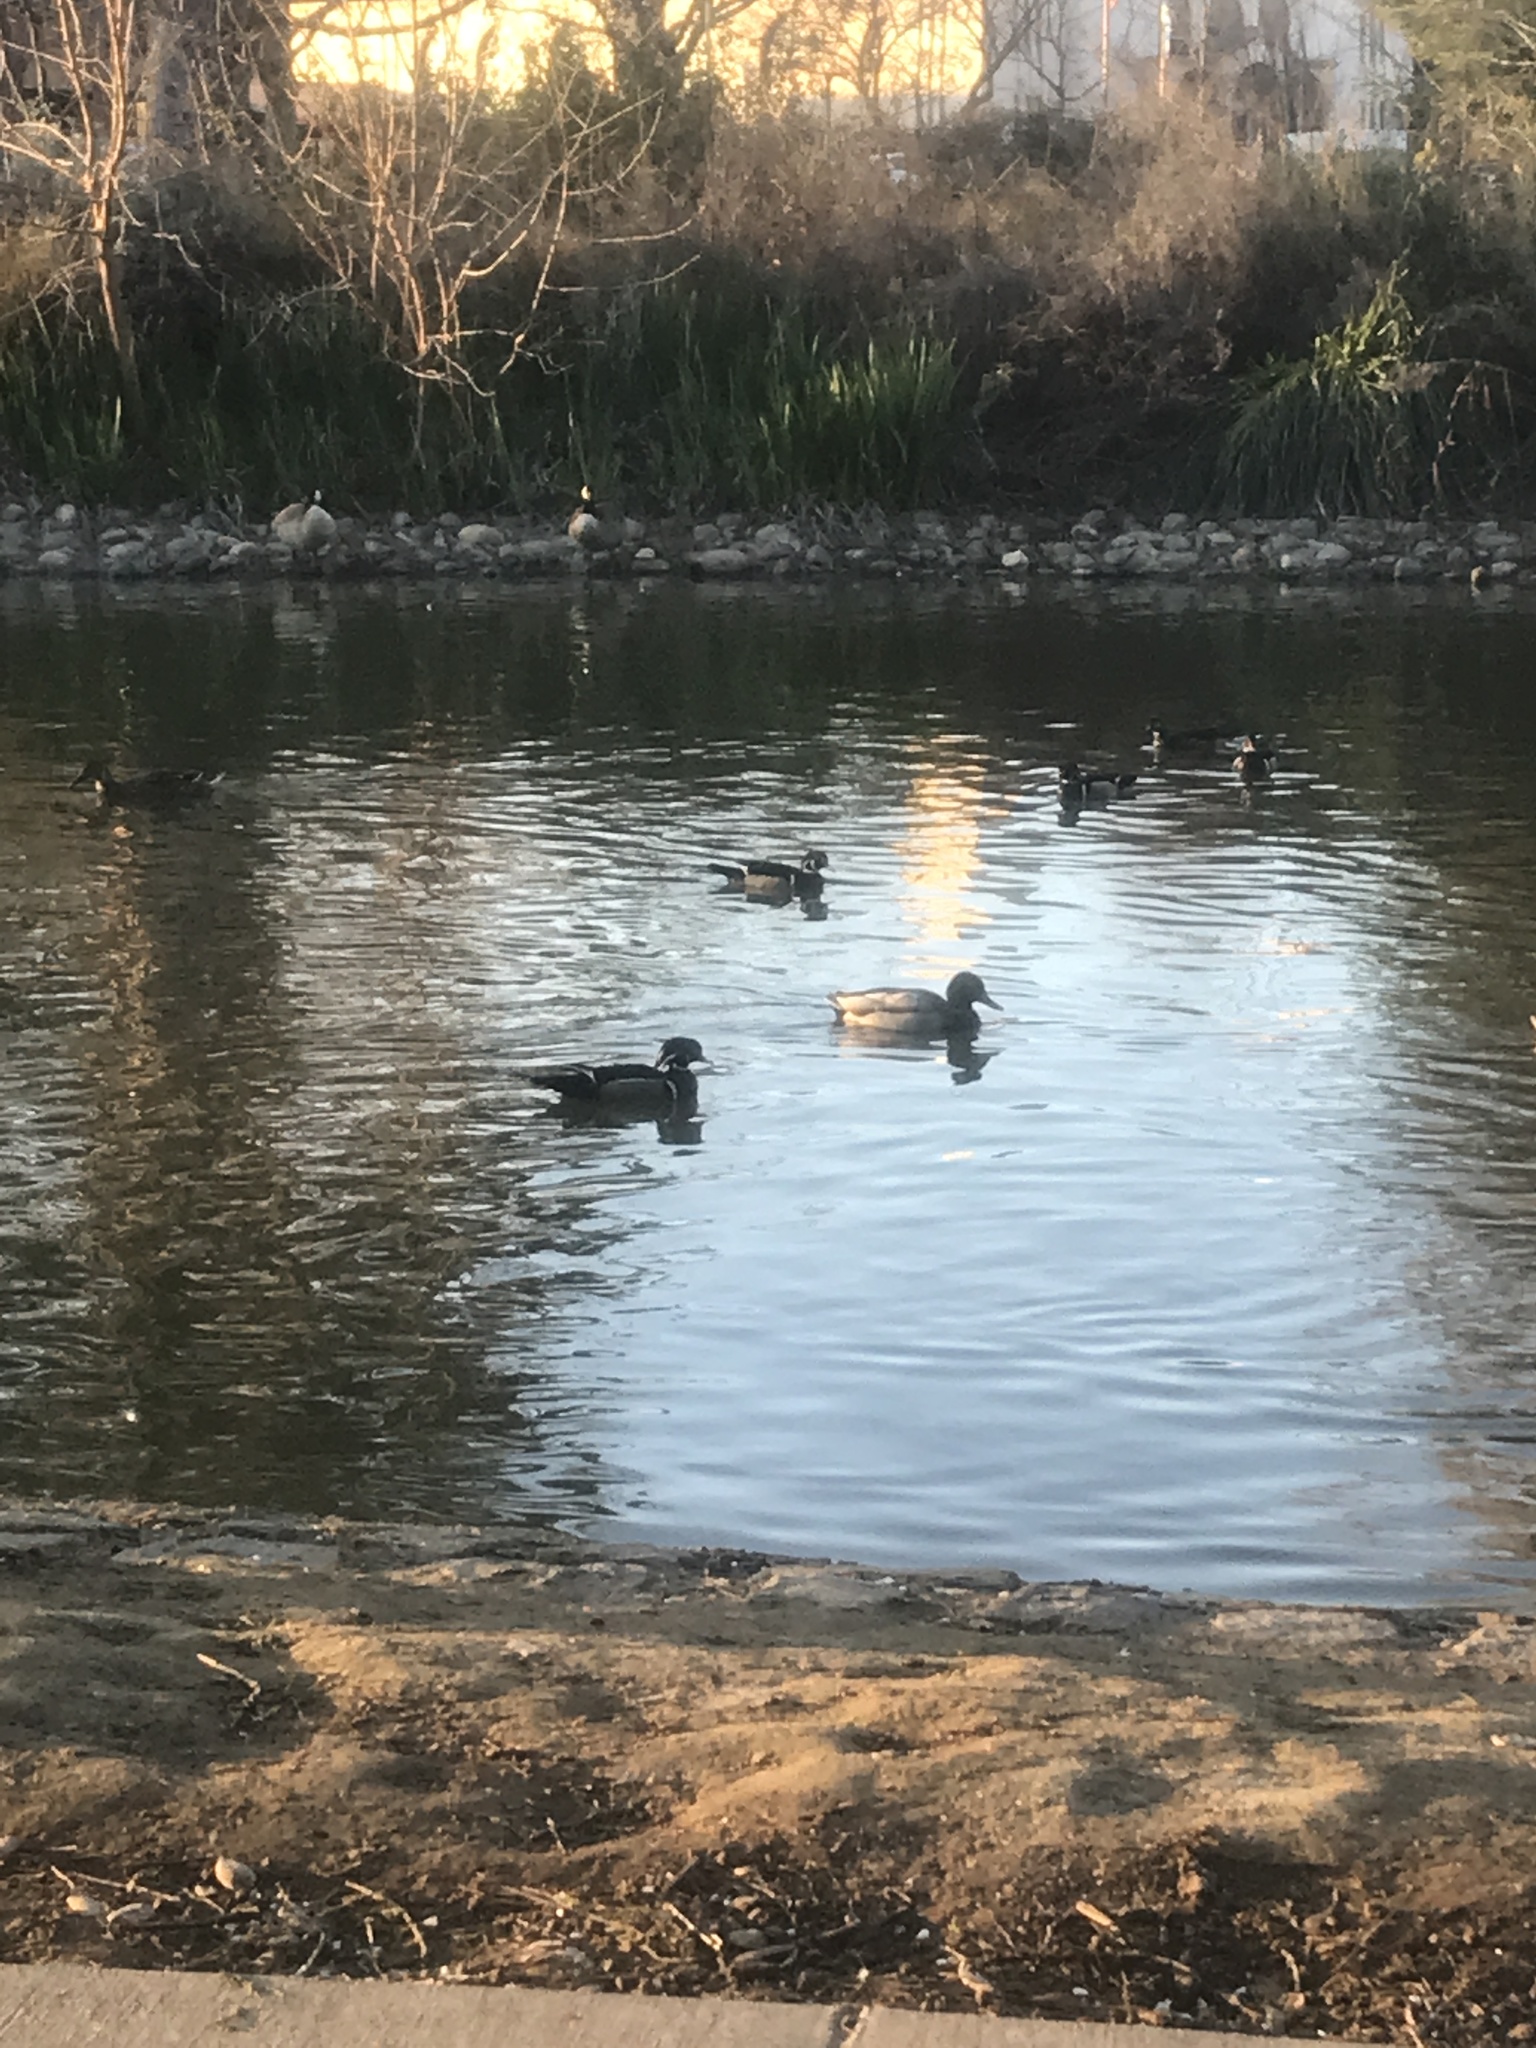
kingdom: Animalia
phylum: Chordata
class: Aves
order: Anseriformes
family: Anatidae
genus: Aix
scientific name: Aix sponsa
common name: Wood duck
